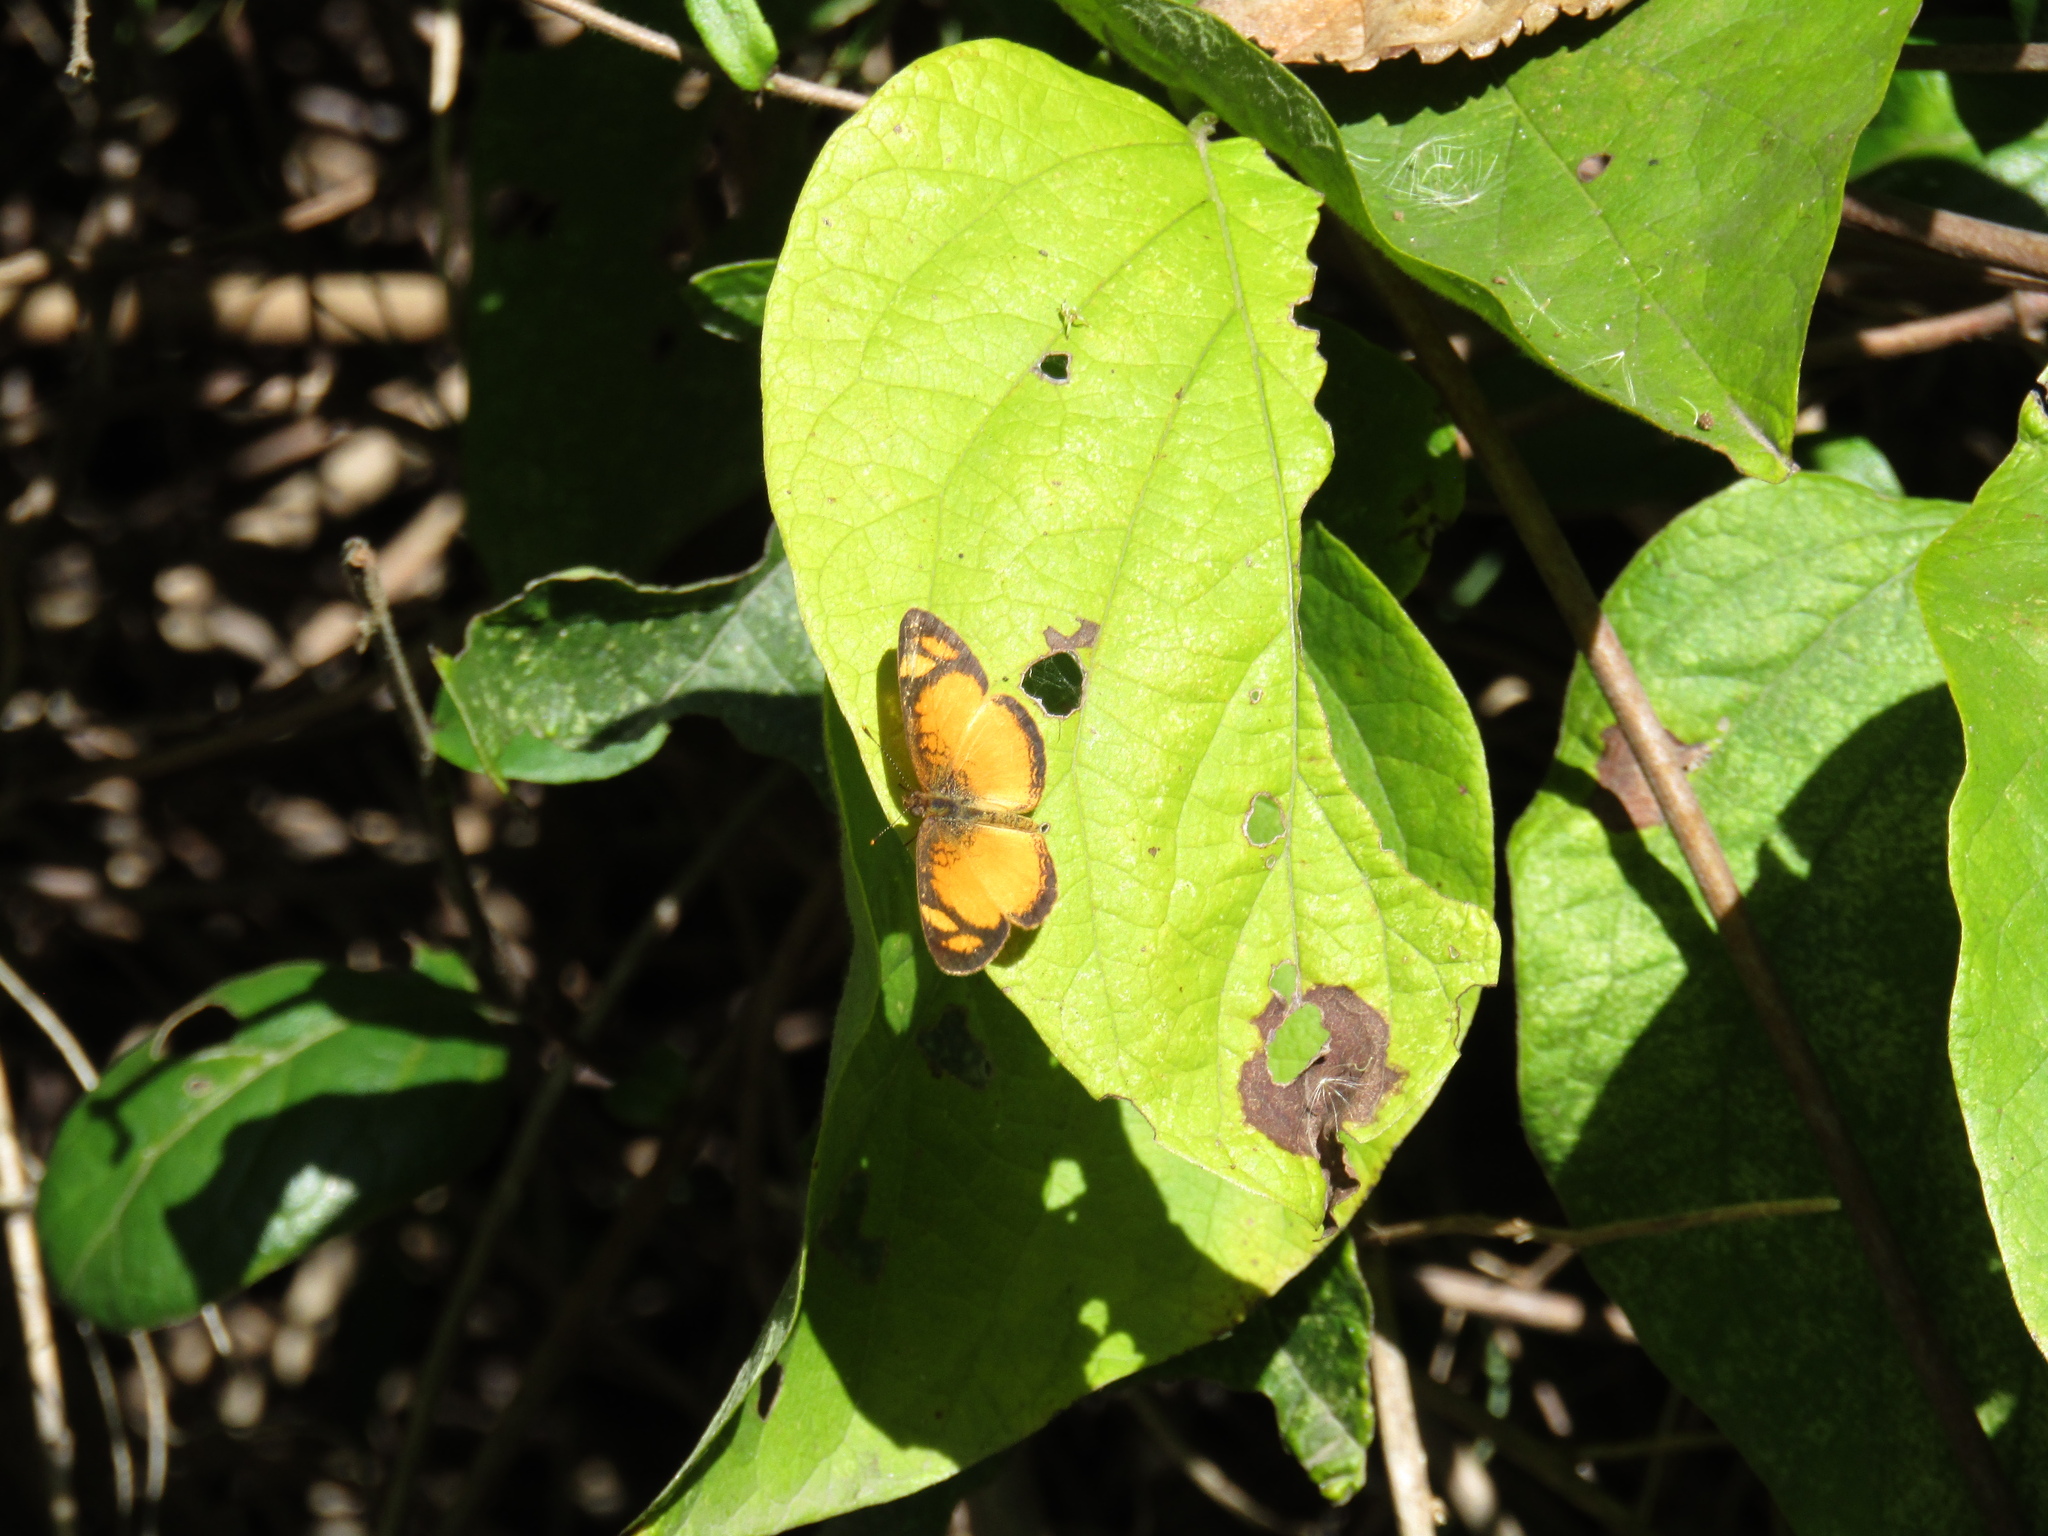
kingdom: Animalia
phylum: Arthropoda
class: Insecta
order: Lepidoptera
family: Nymphalidae
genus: Tegosa
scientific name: Tegosa claudina
